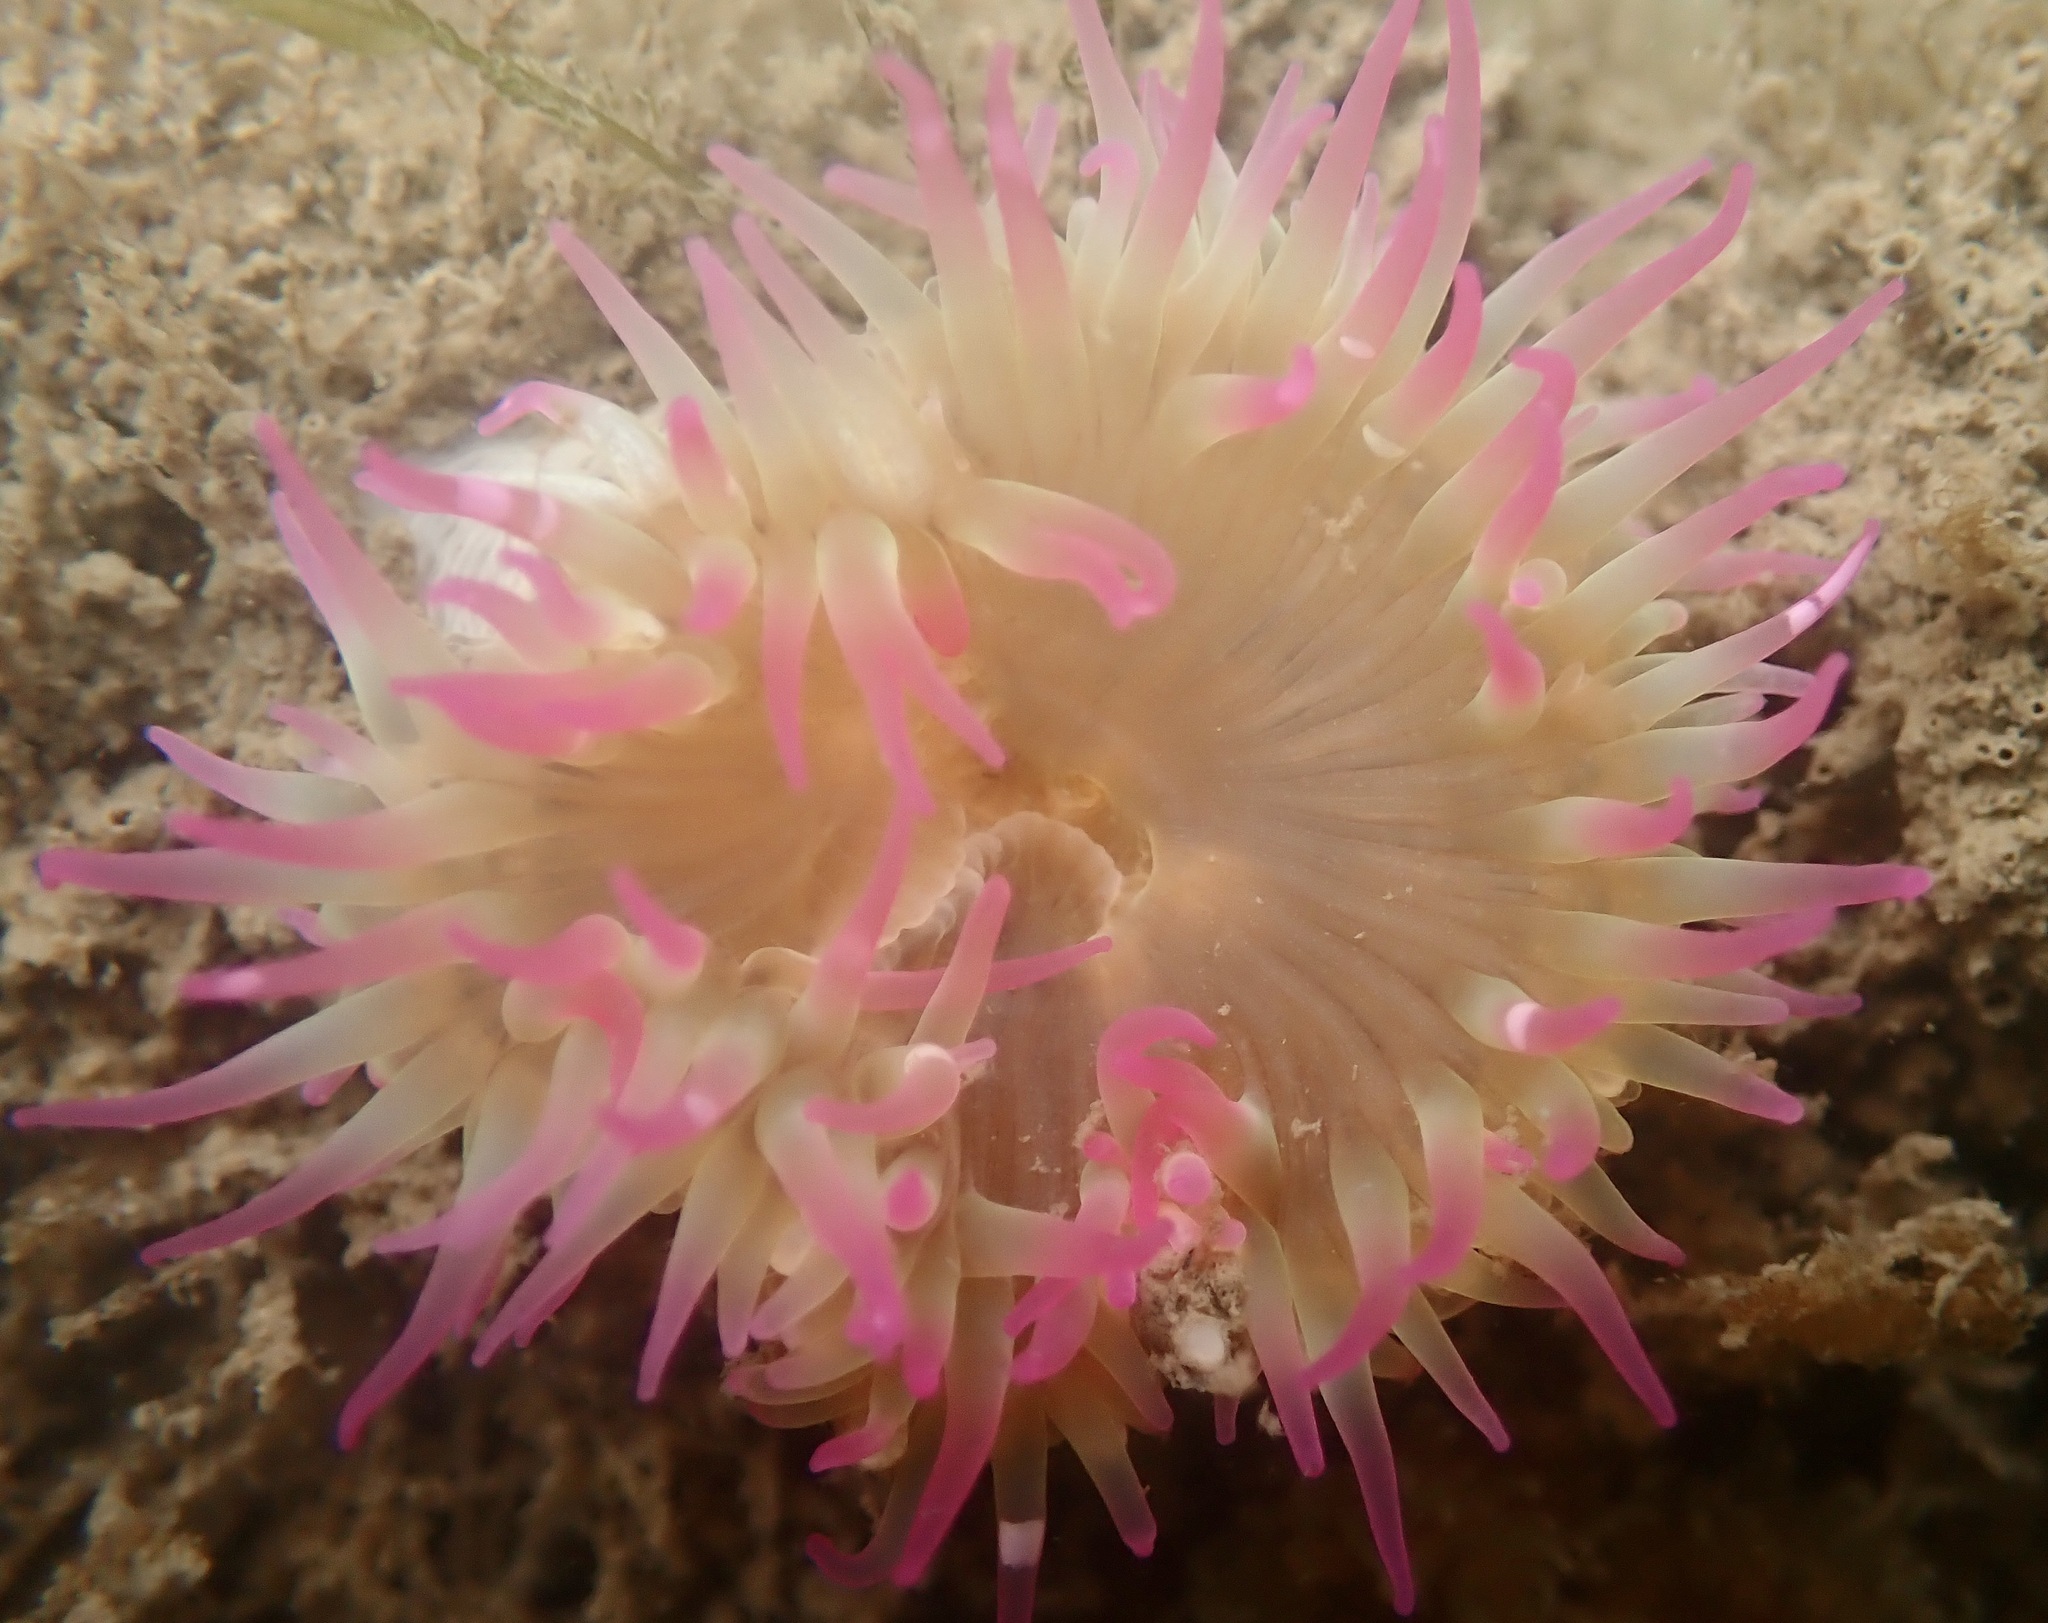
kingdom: Animalia
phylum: Cnidaria
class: Anthozoa
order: Actiniaria
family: Actiniidae
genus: Anthopleura
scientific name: Anthopleura elegantissima
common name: Clonal anemone
